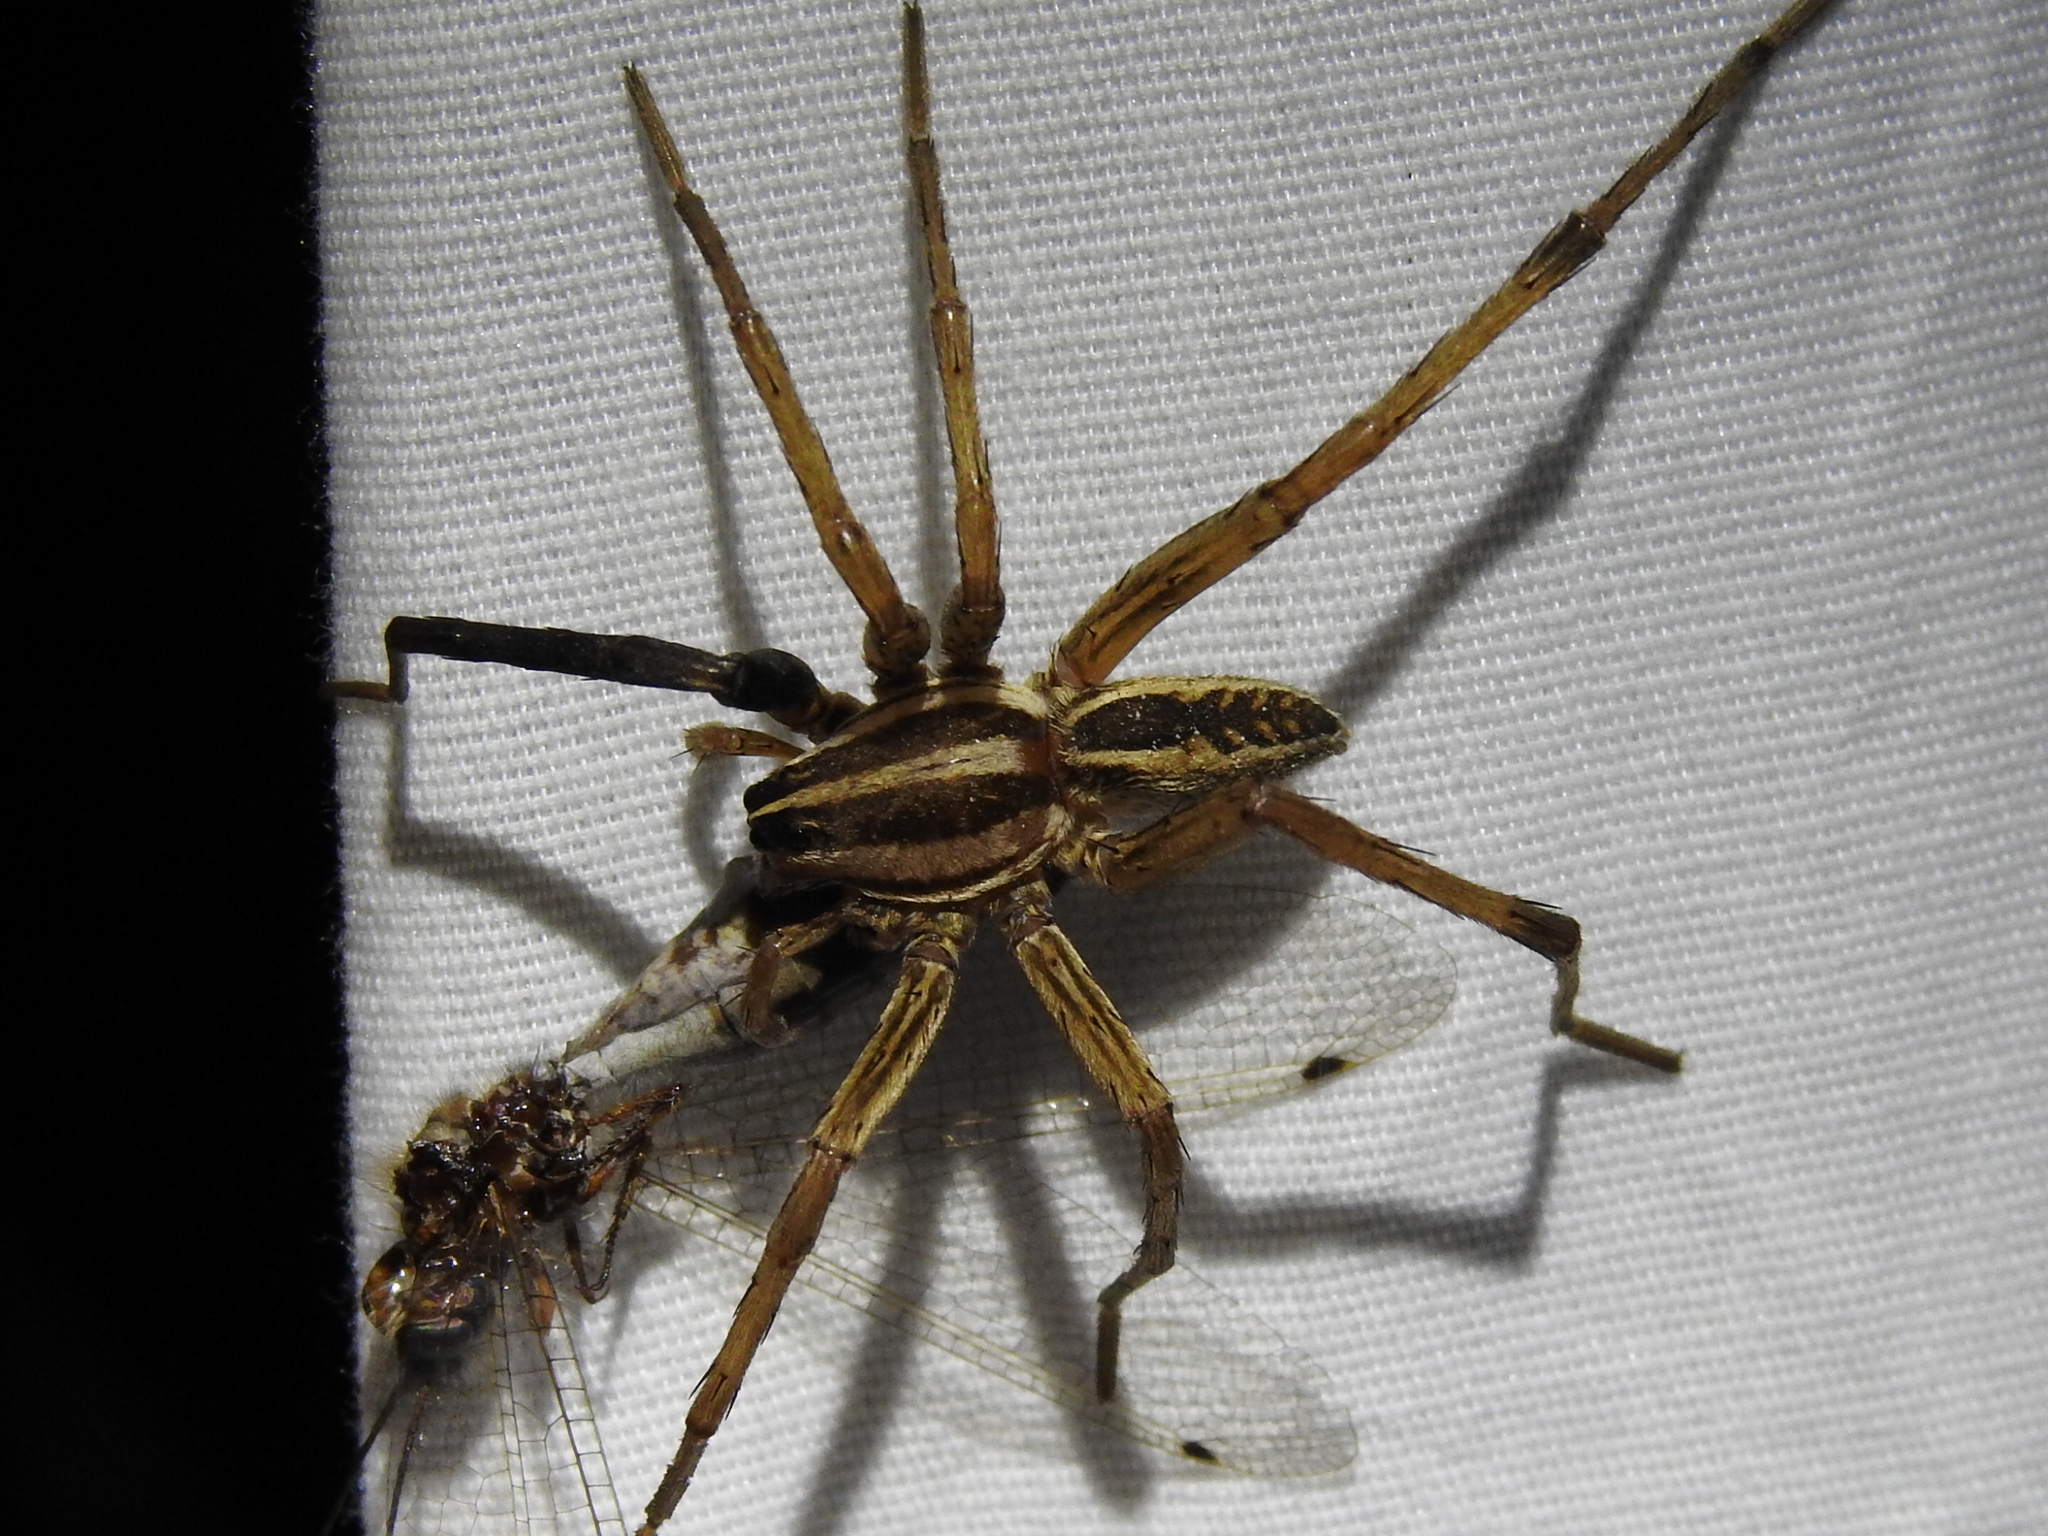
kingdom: Animalia
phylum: Arthropoda
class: Arachnida
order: Araneae
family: Lycosidae
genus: Rabidosa
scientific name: Rabidosa rabida
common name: Rabid wolf spider
